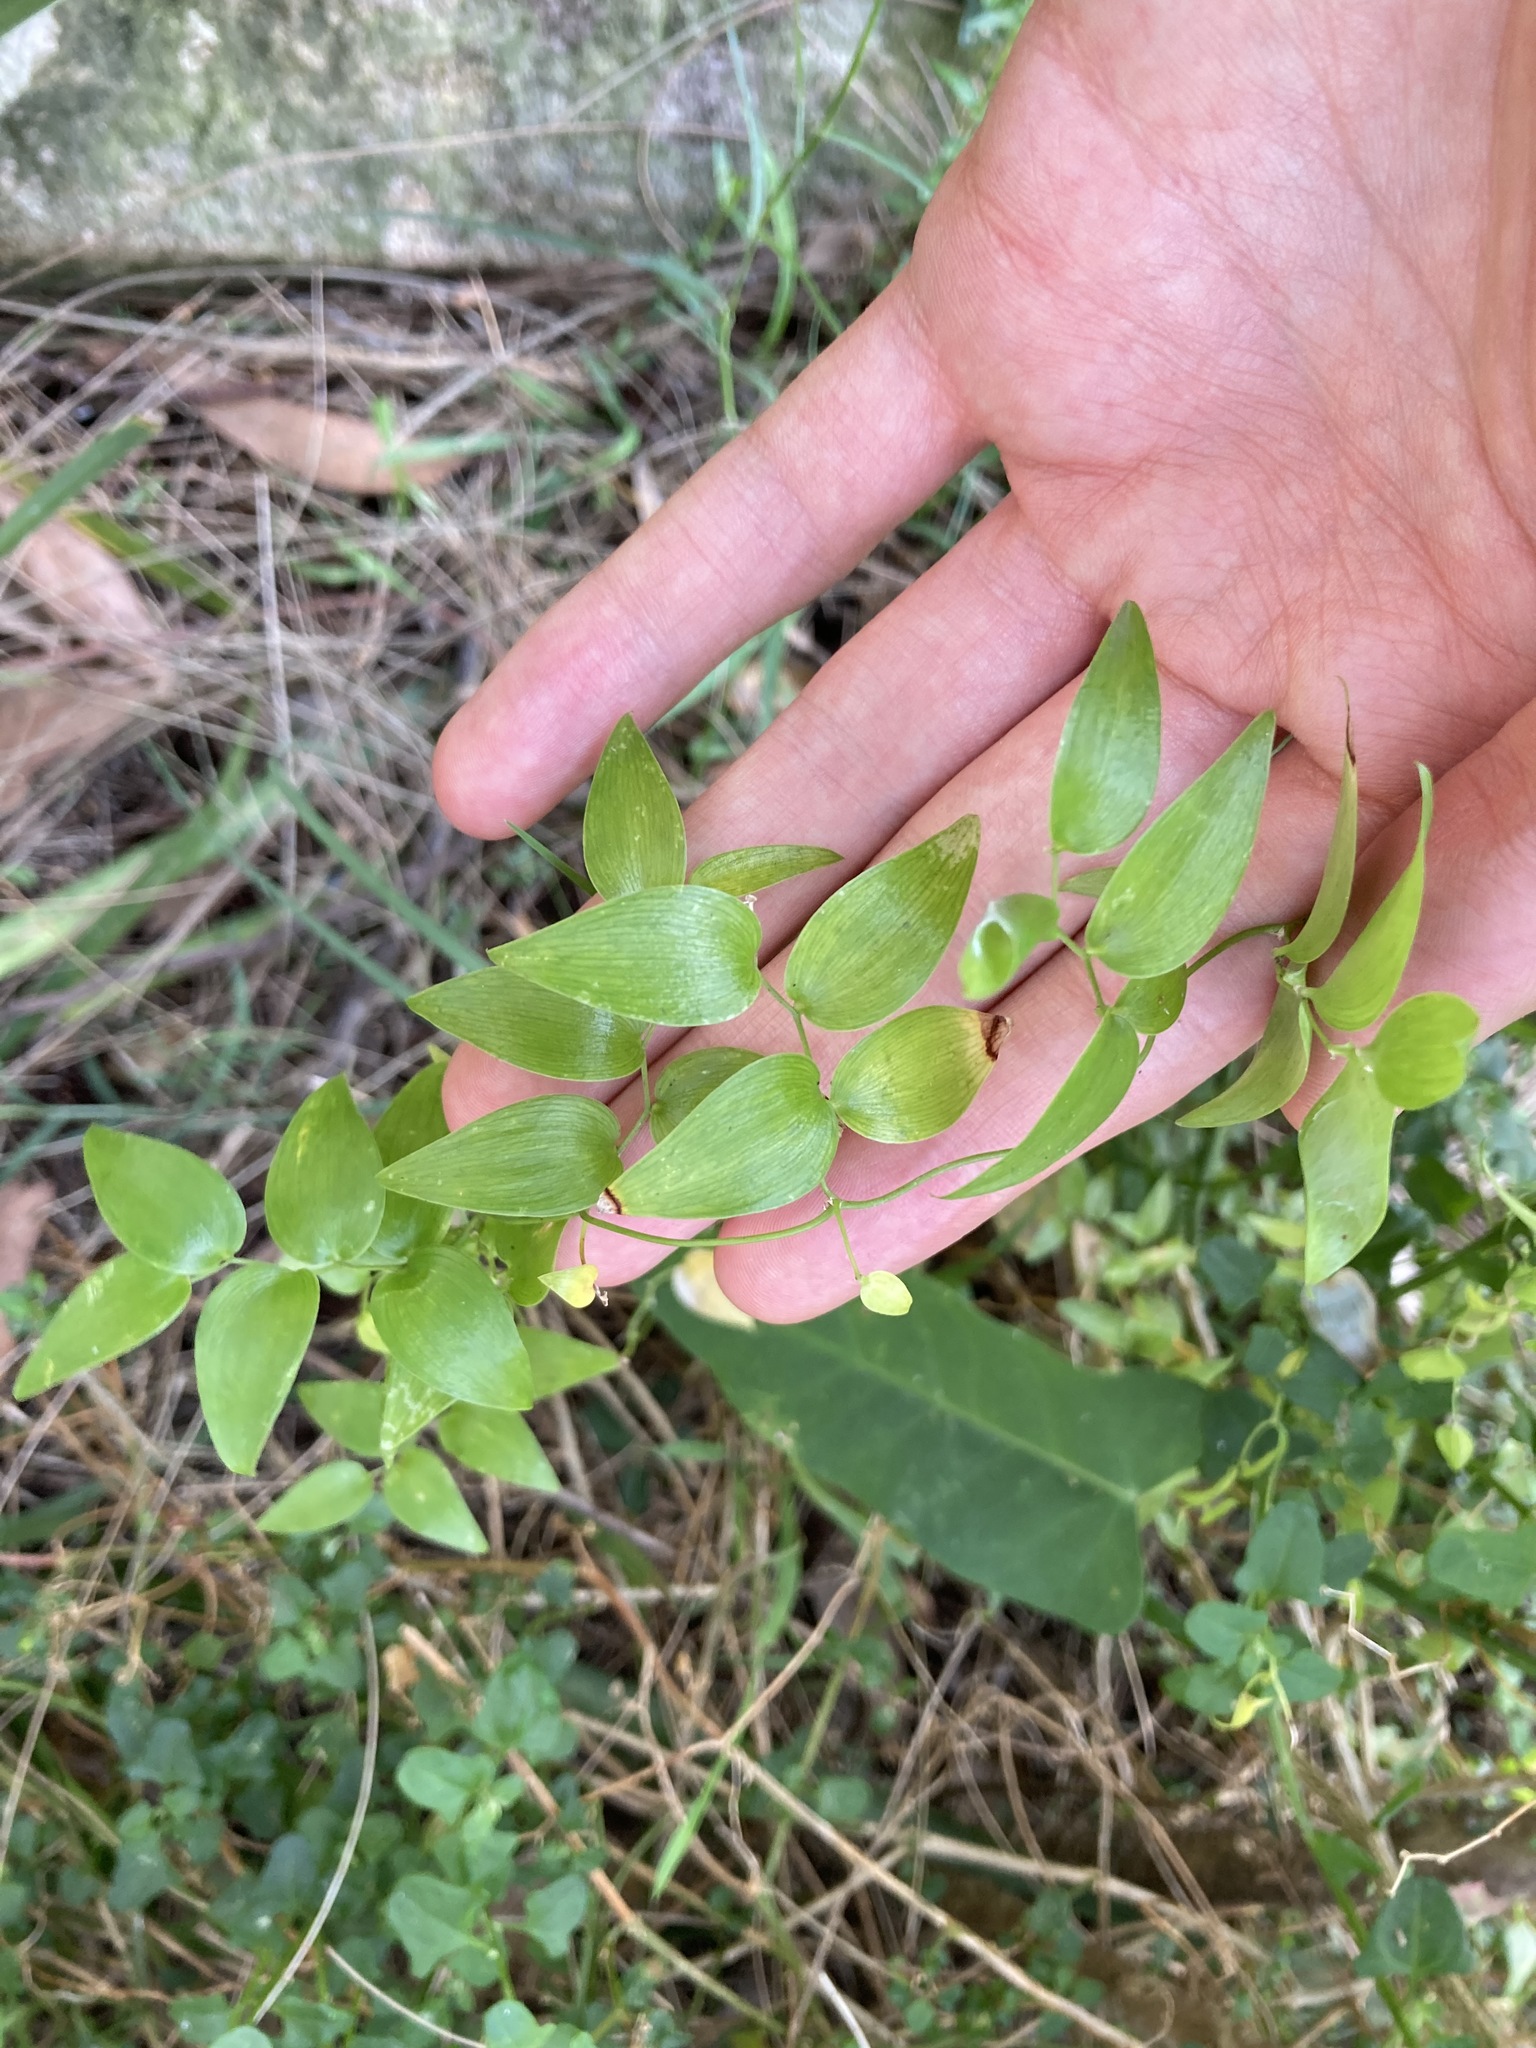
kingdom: Plantae
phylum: Tracheophyta
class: Liliopsida
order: Asparagales
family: Asparagaceae
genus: Asparagus
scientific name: Asparagus asparagoides
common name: African asparagus fern
